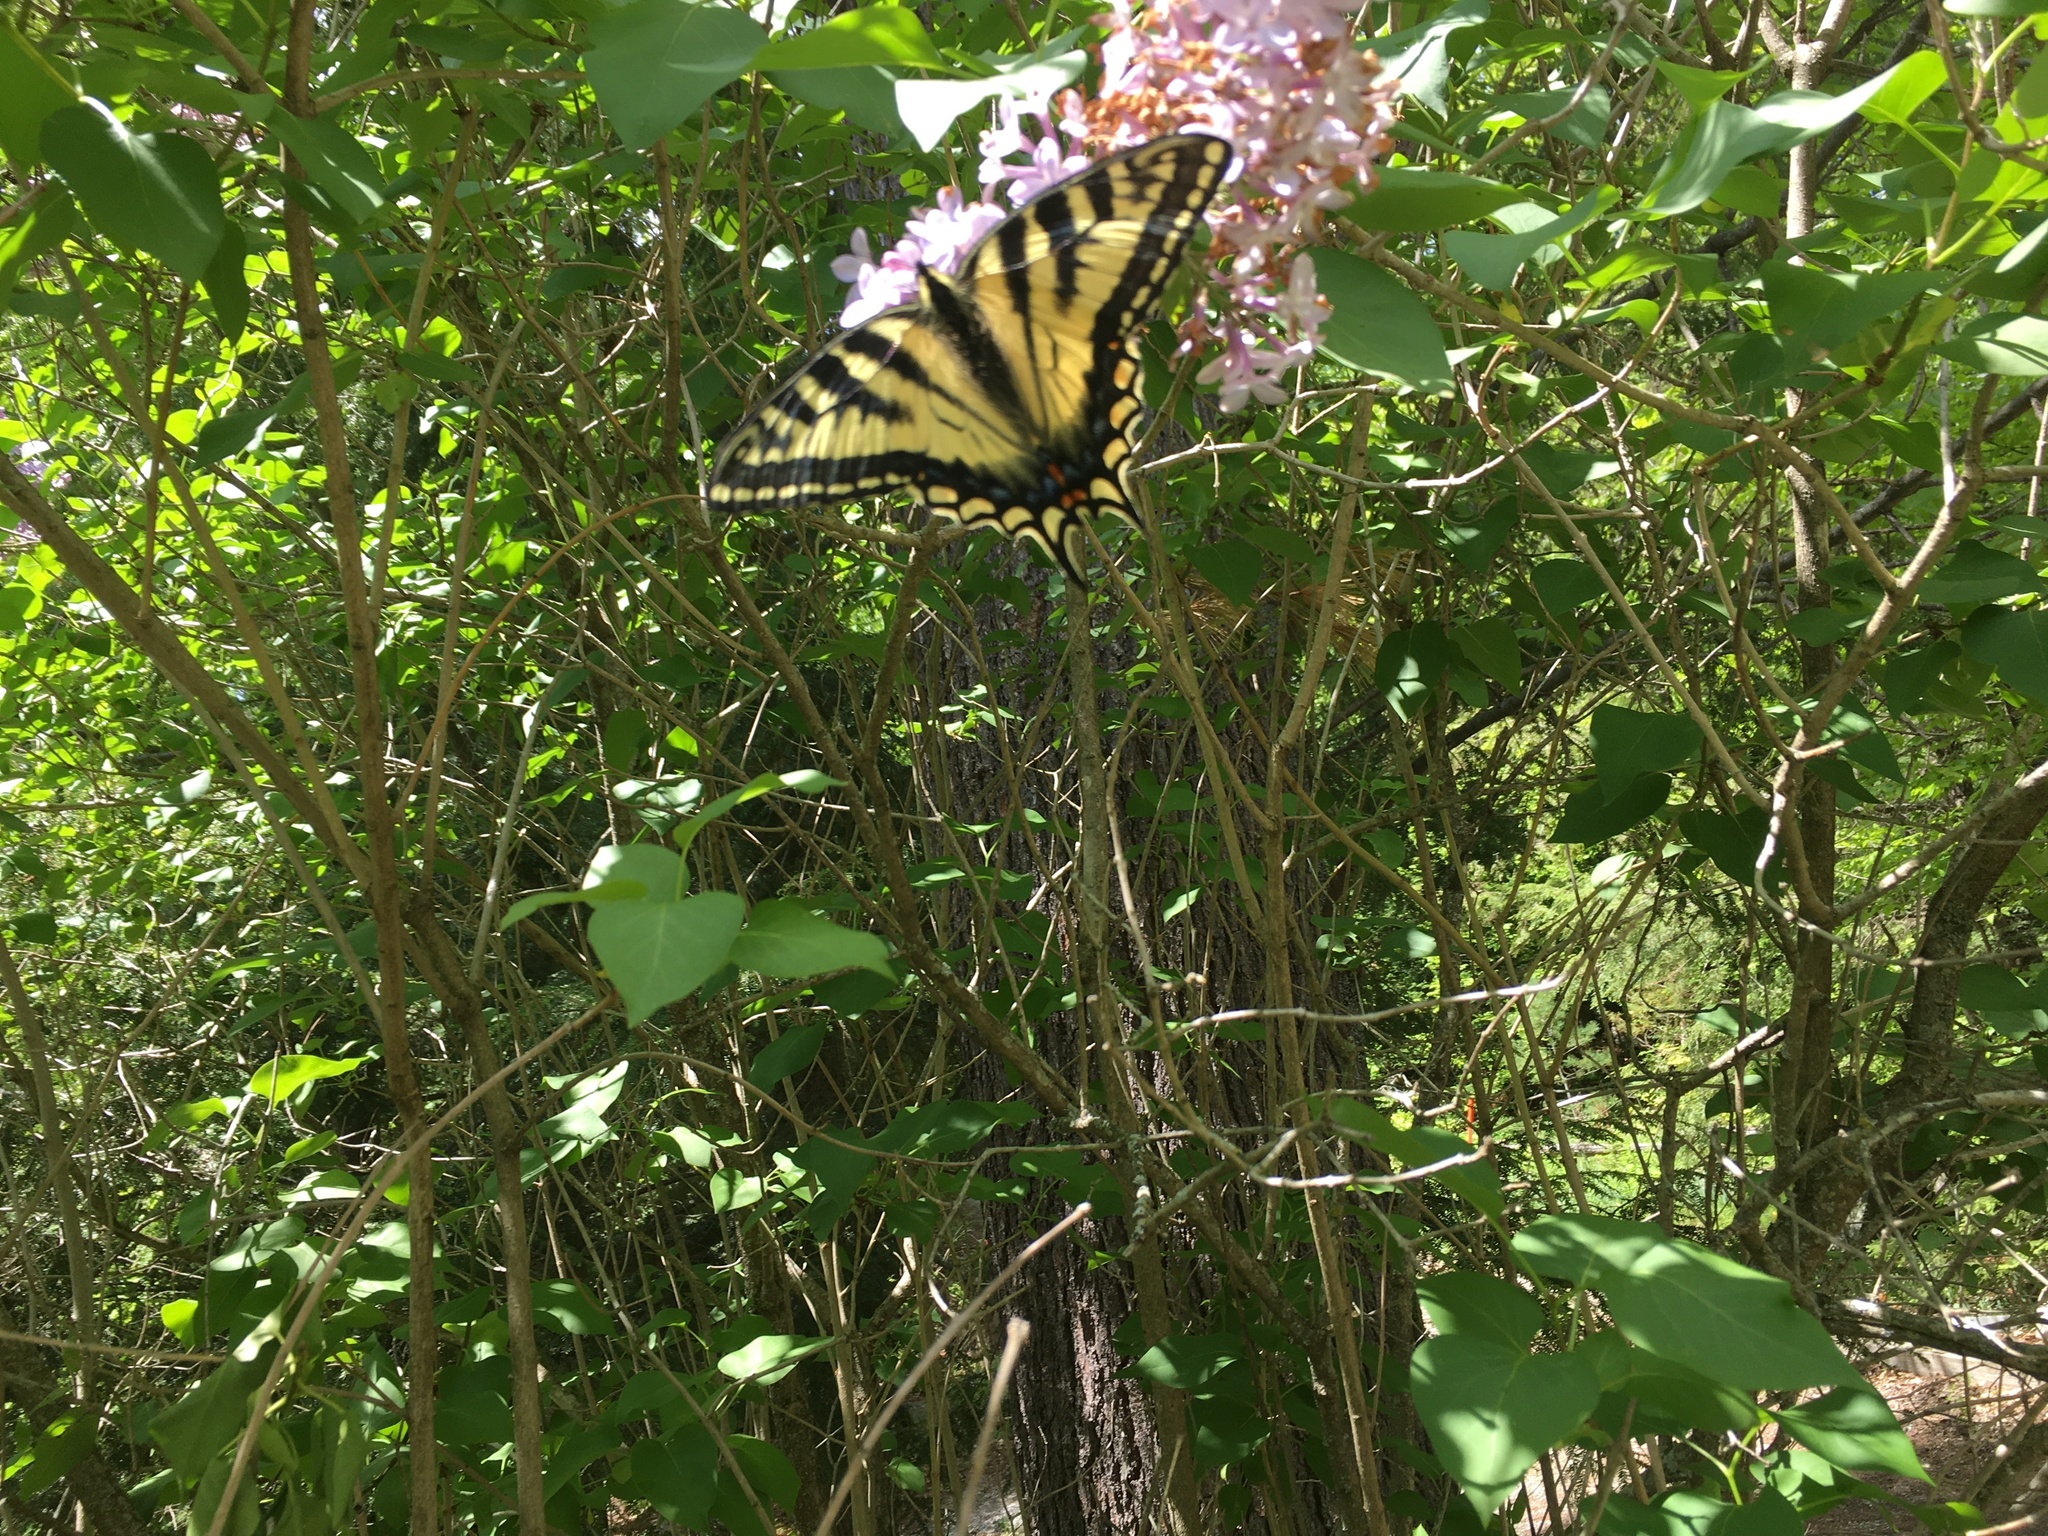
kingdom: Animalia
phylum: Arthropoda
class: Insecta
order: Lepidoptera
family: Papilionidae
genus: Papilio
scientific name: Papilio canadensis
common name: Canadian tiger swallowtail
